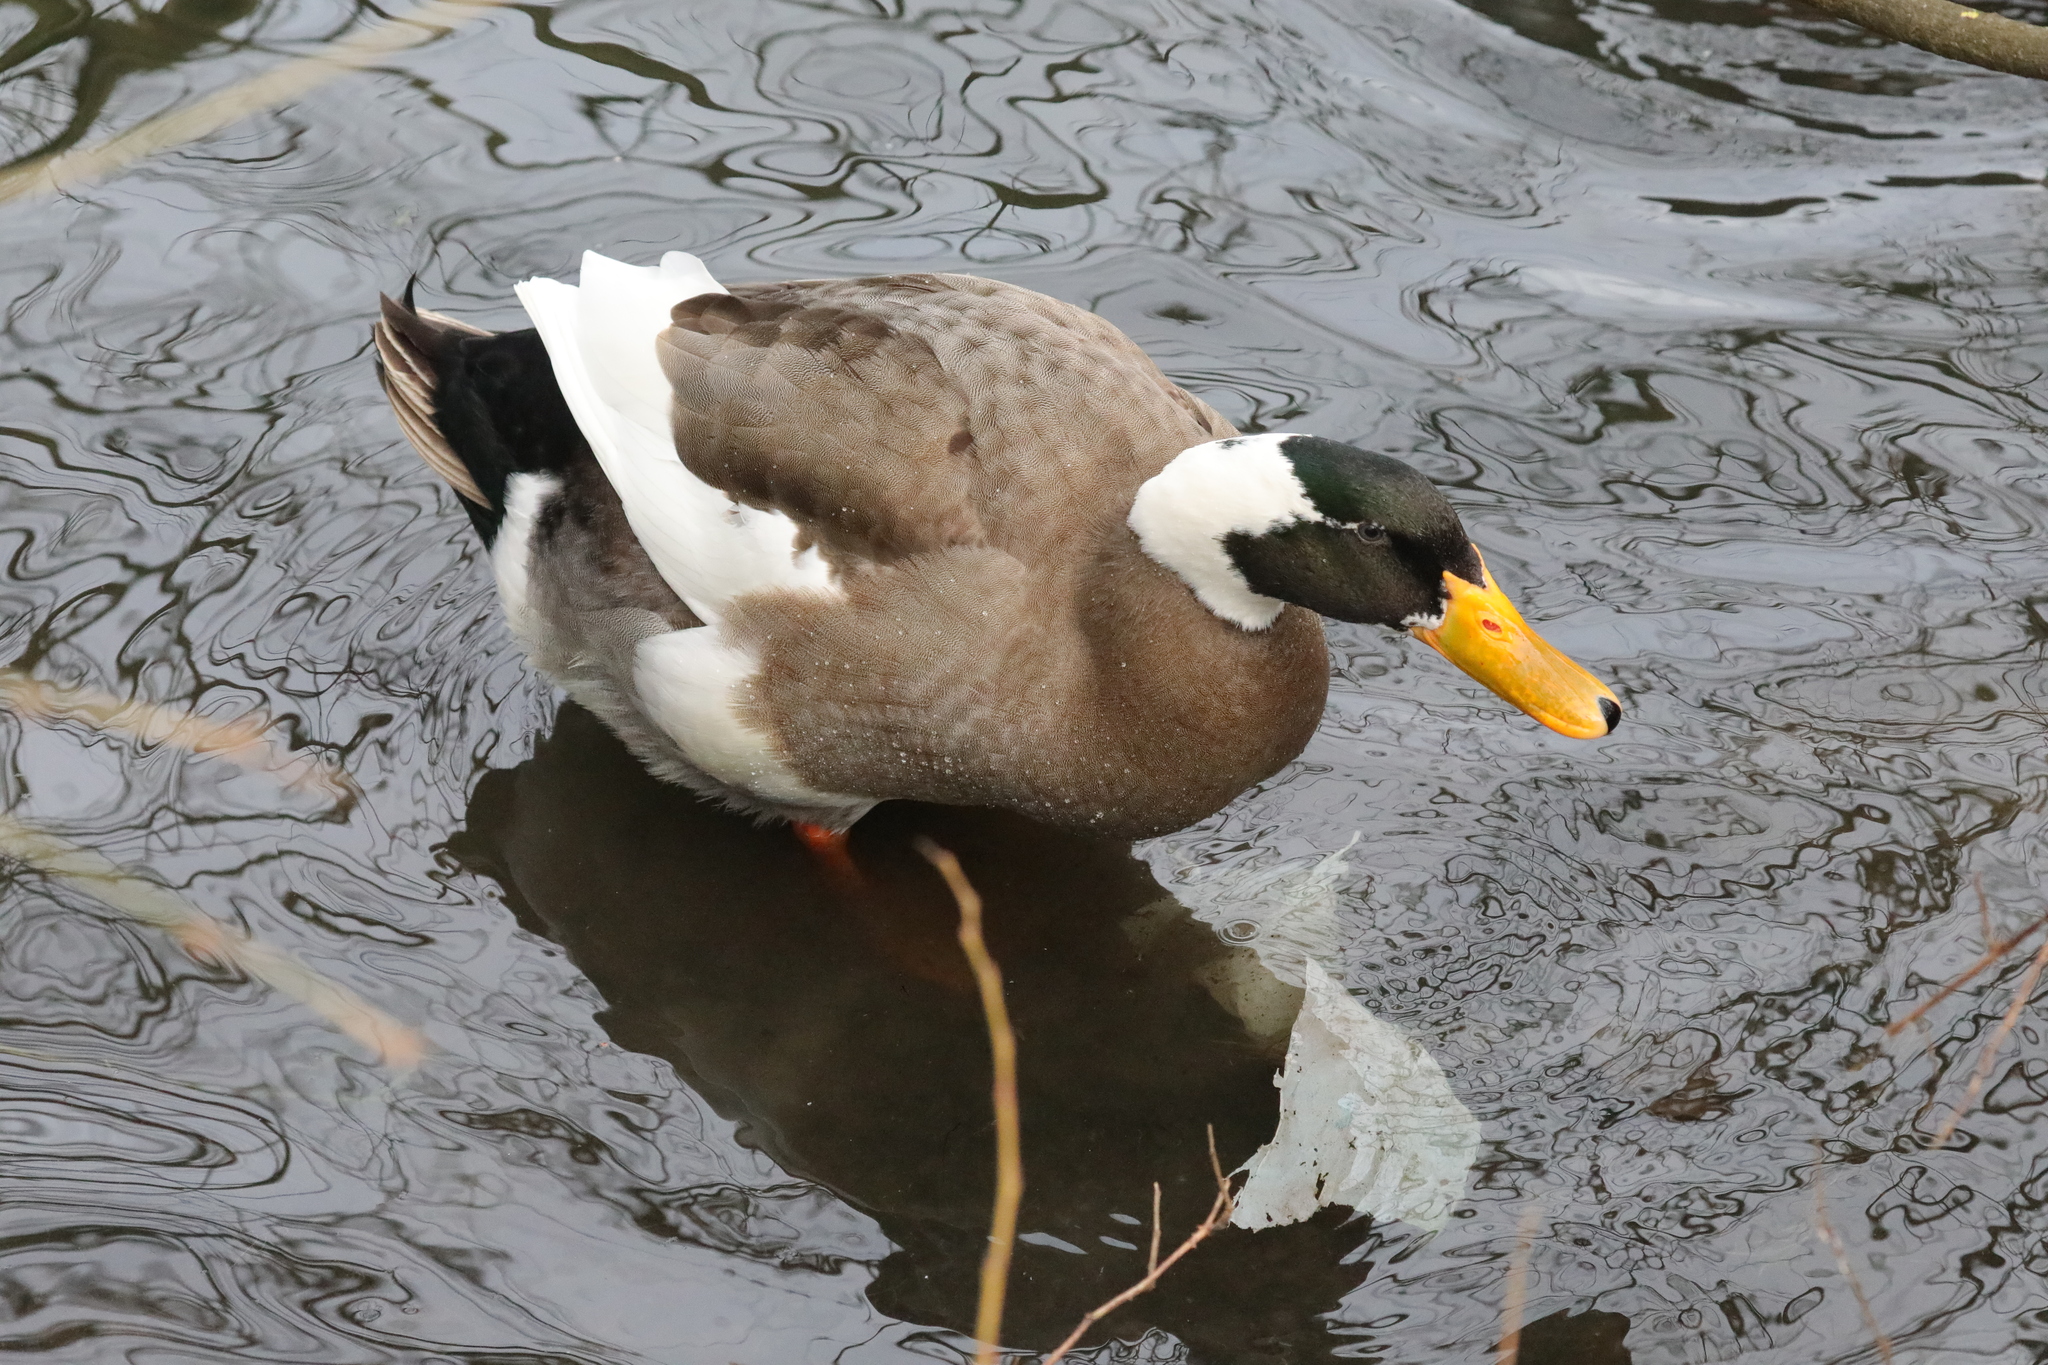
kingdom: Animalia
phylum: Chordata
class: Aves
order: Anseriformes
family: Anatidae
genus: Anas
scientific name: Anas platyrhynchos
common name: Mallard
